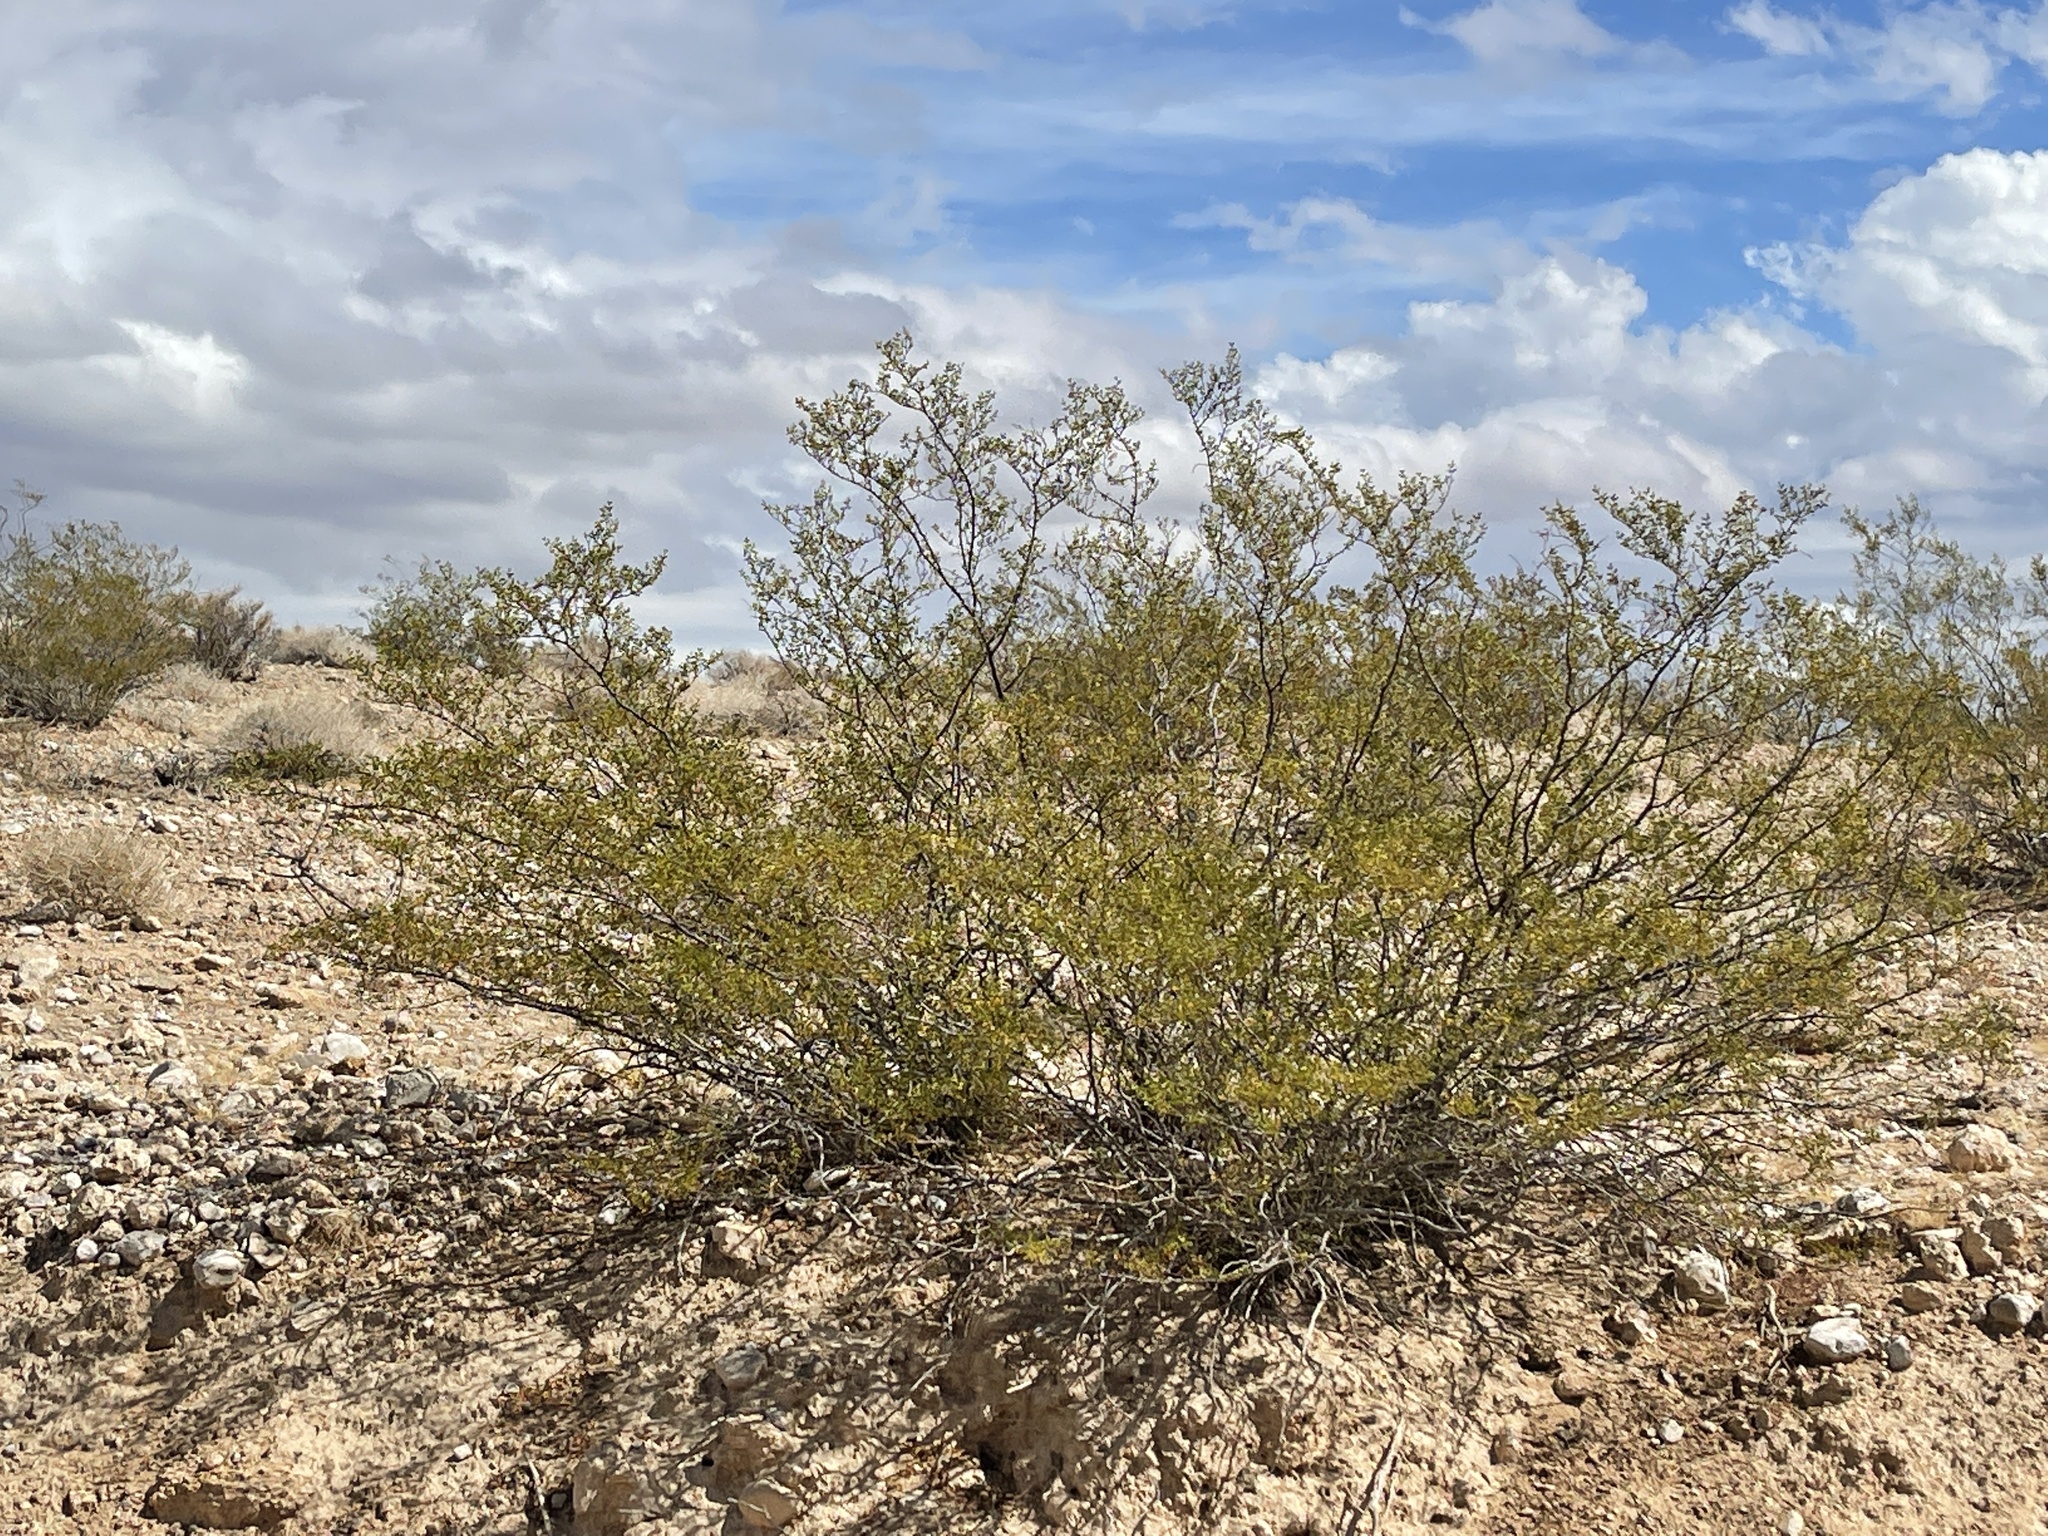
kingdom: Plantae
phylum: Tracheophyta
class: Magnoliopsida
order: Zygophyllales
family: Zygophyllaceae
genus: Larrea
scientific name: Larrea tridentata
